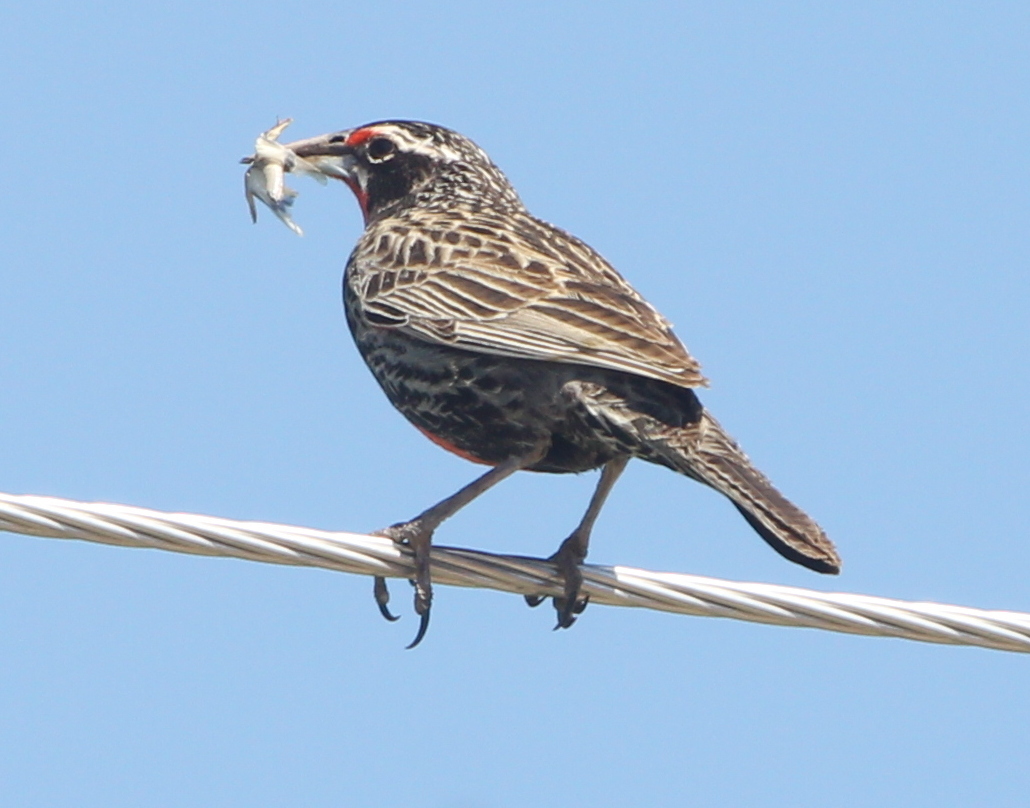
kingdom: Animalia
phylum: Chordata
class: Aves
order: Passeriformes
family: Icteridae
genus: Sturnella
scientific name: Sturnella loyca
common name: Long-tailed meadowlark
